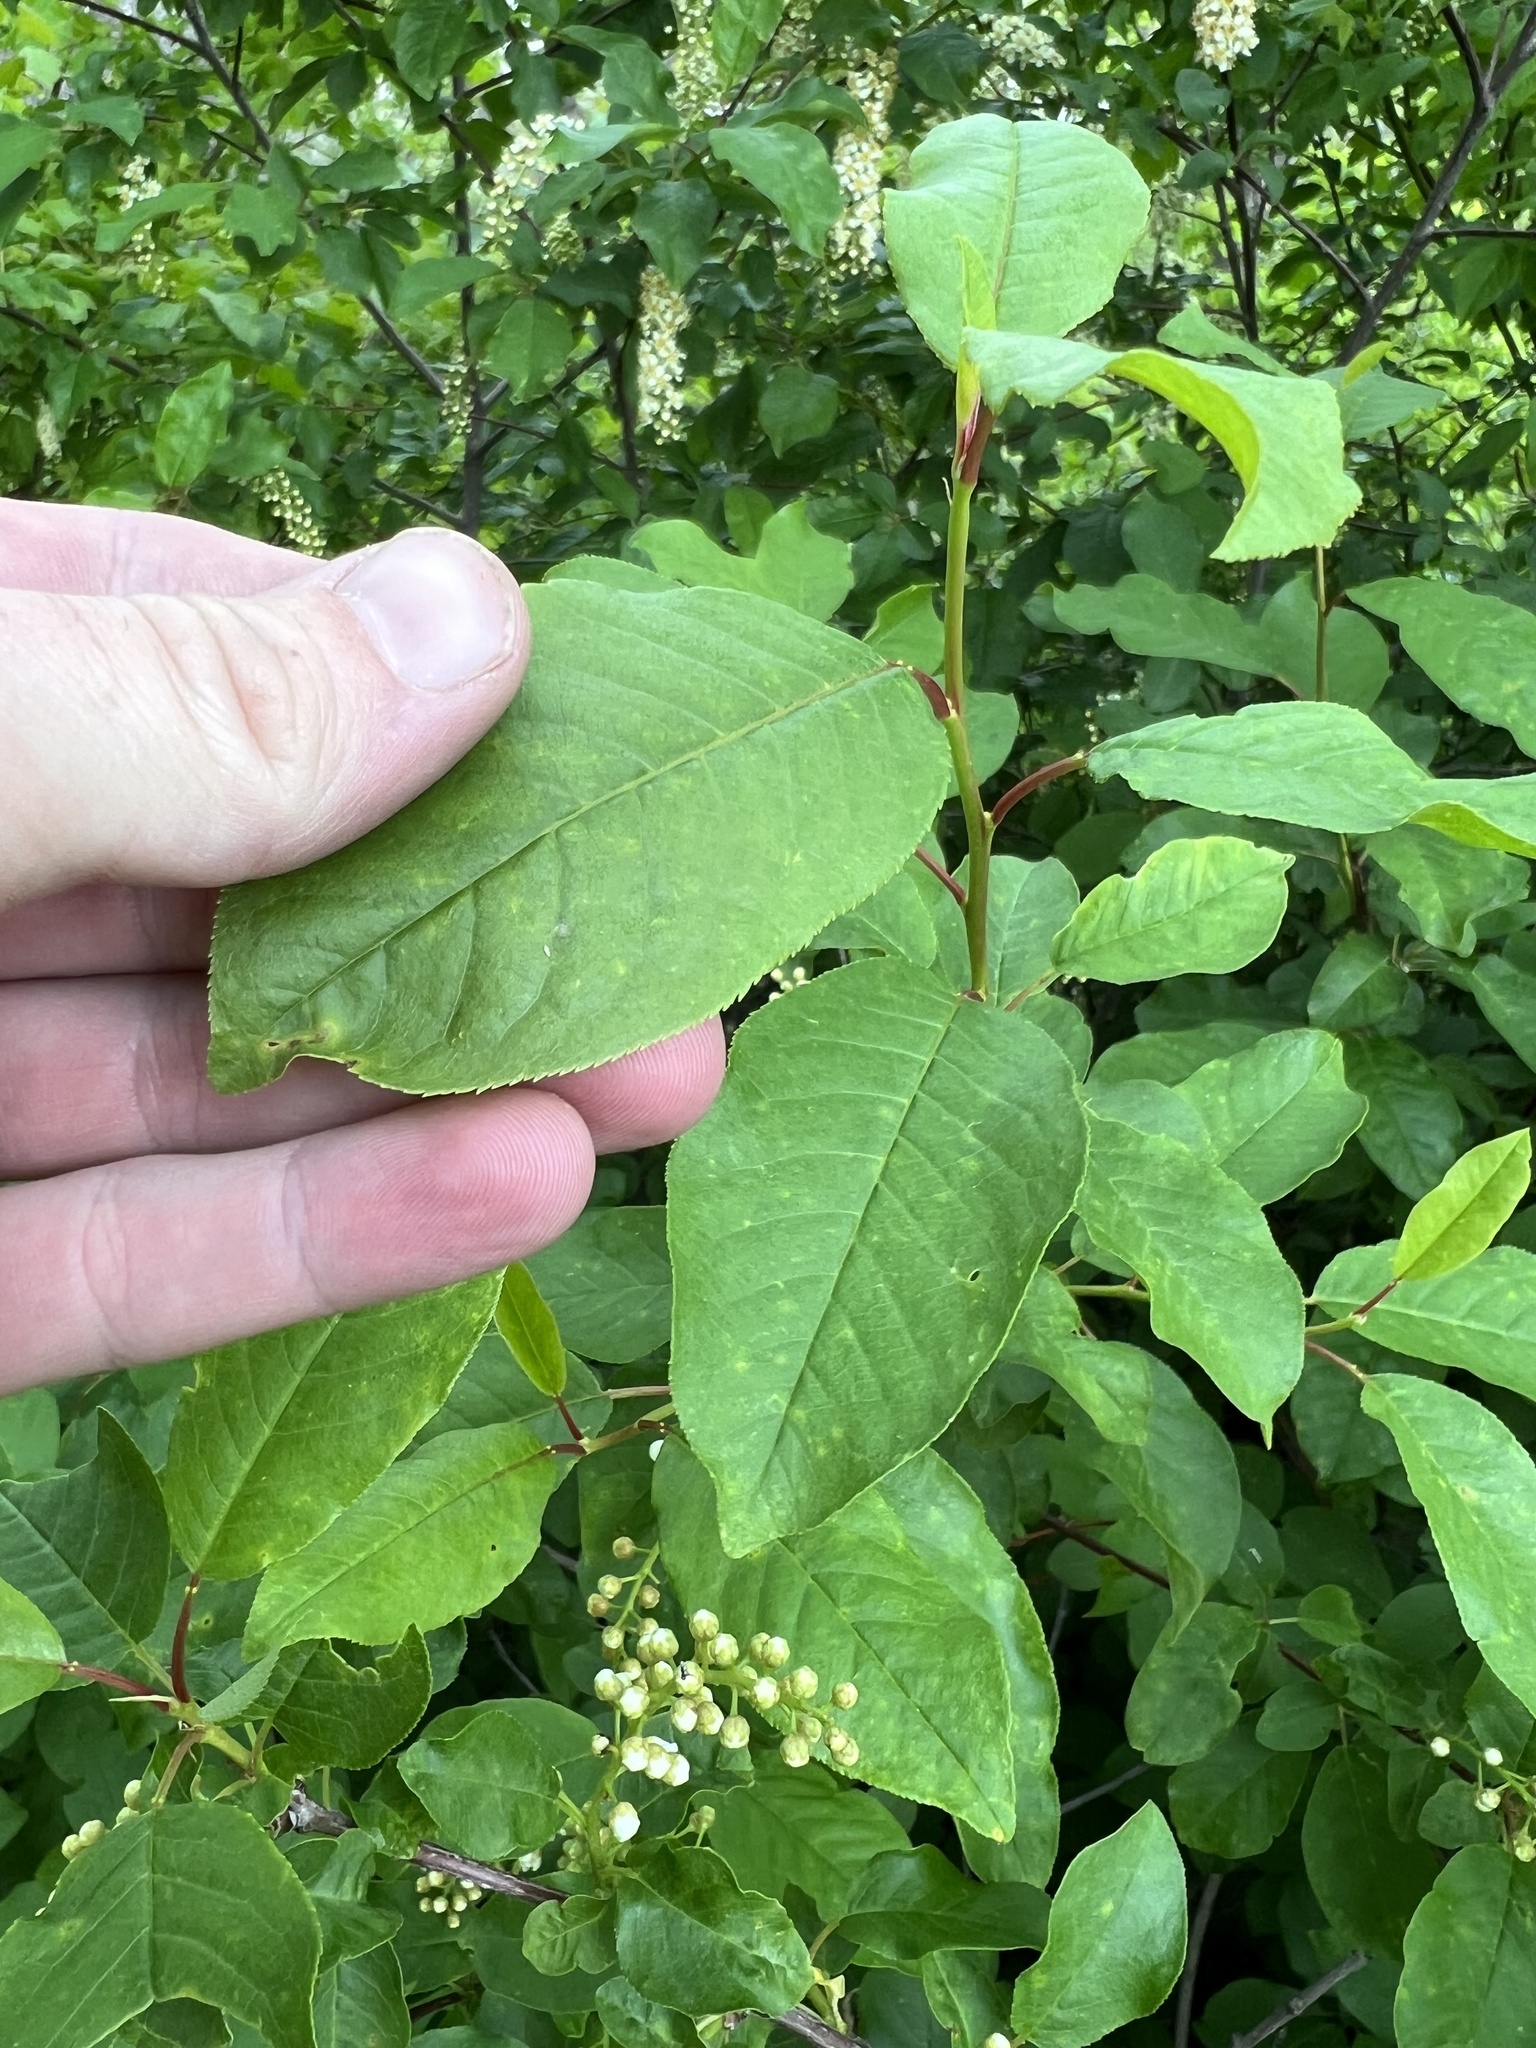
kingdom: Plantae
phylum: Tracheophyta
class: Magnoliopsida
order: Rosales
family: Rosaceae
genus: Prunus
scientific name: Prunus virginiana
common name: Chokecherry
